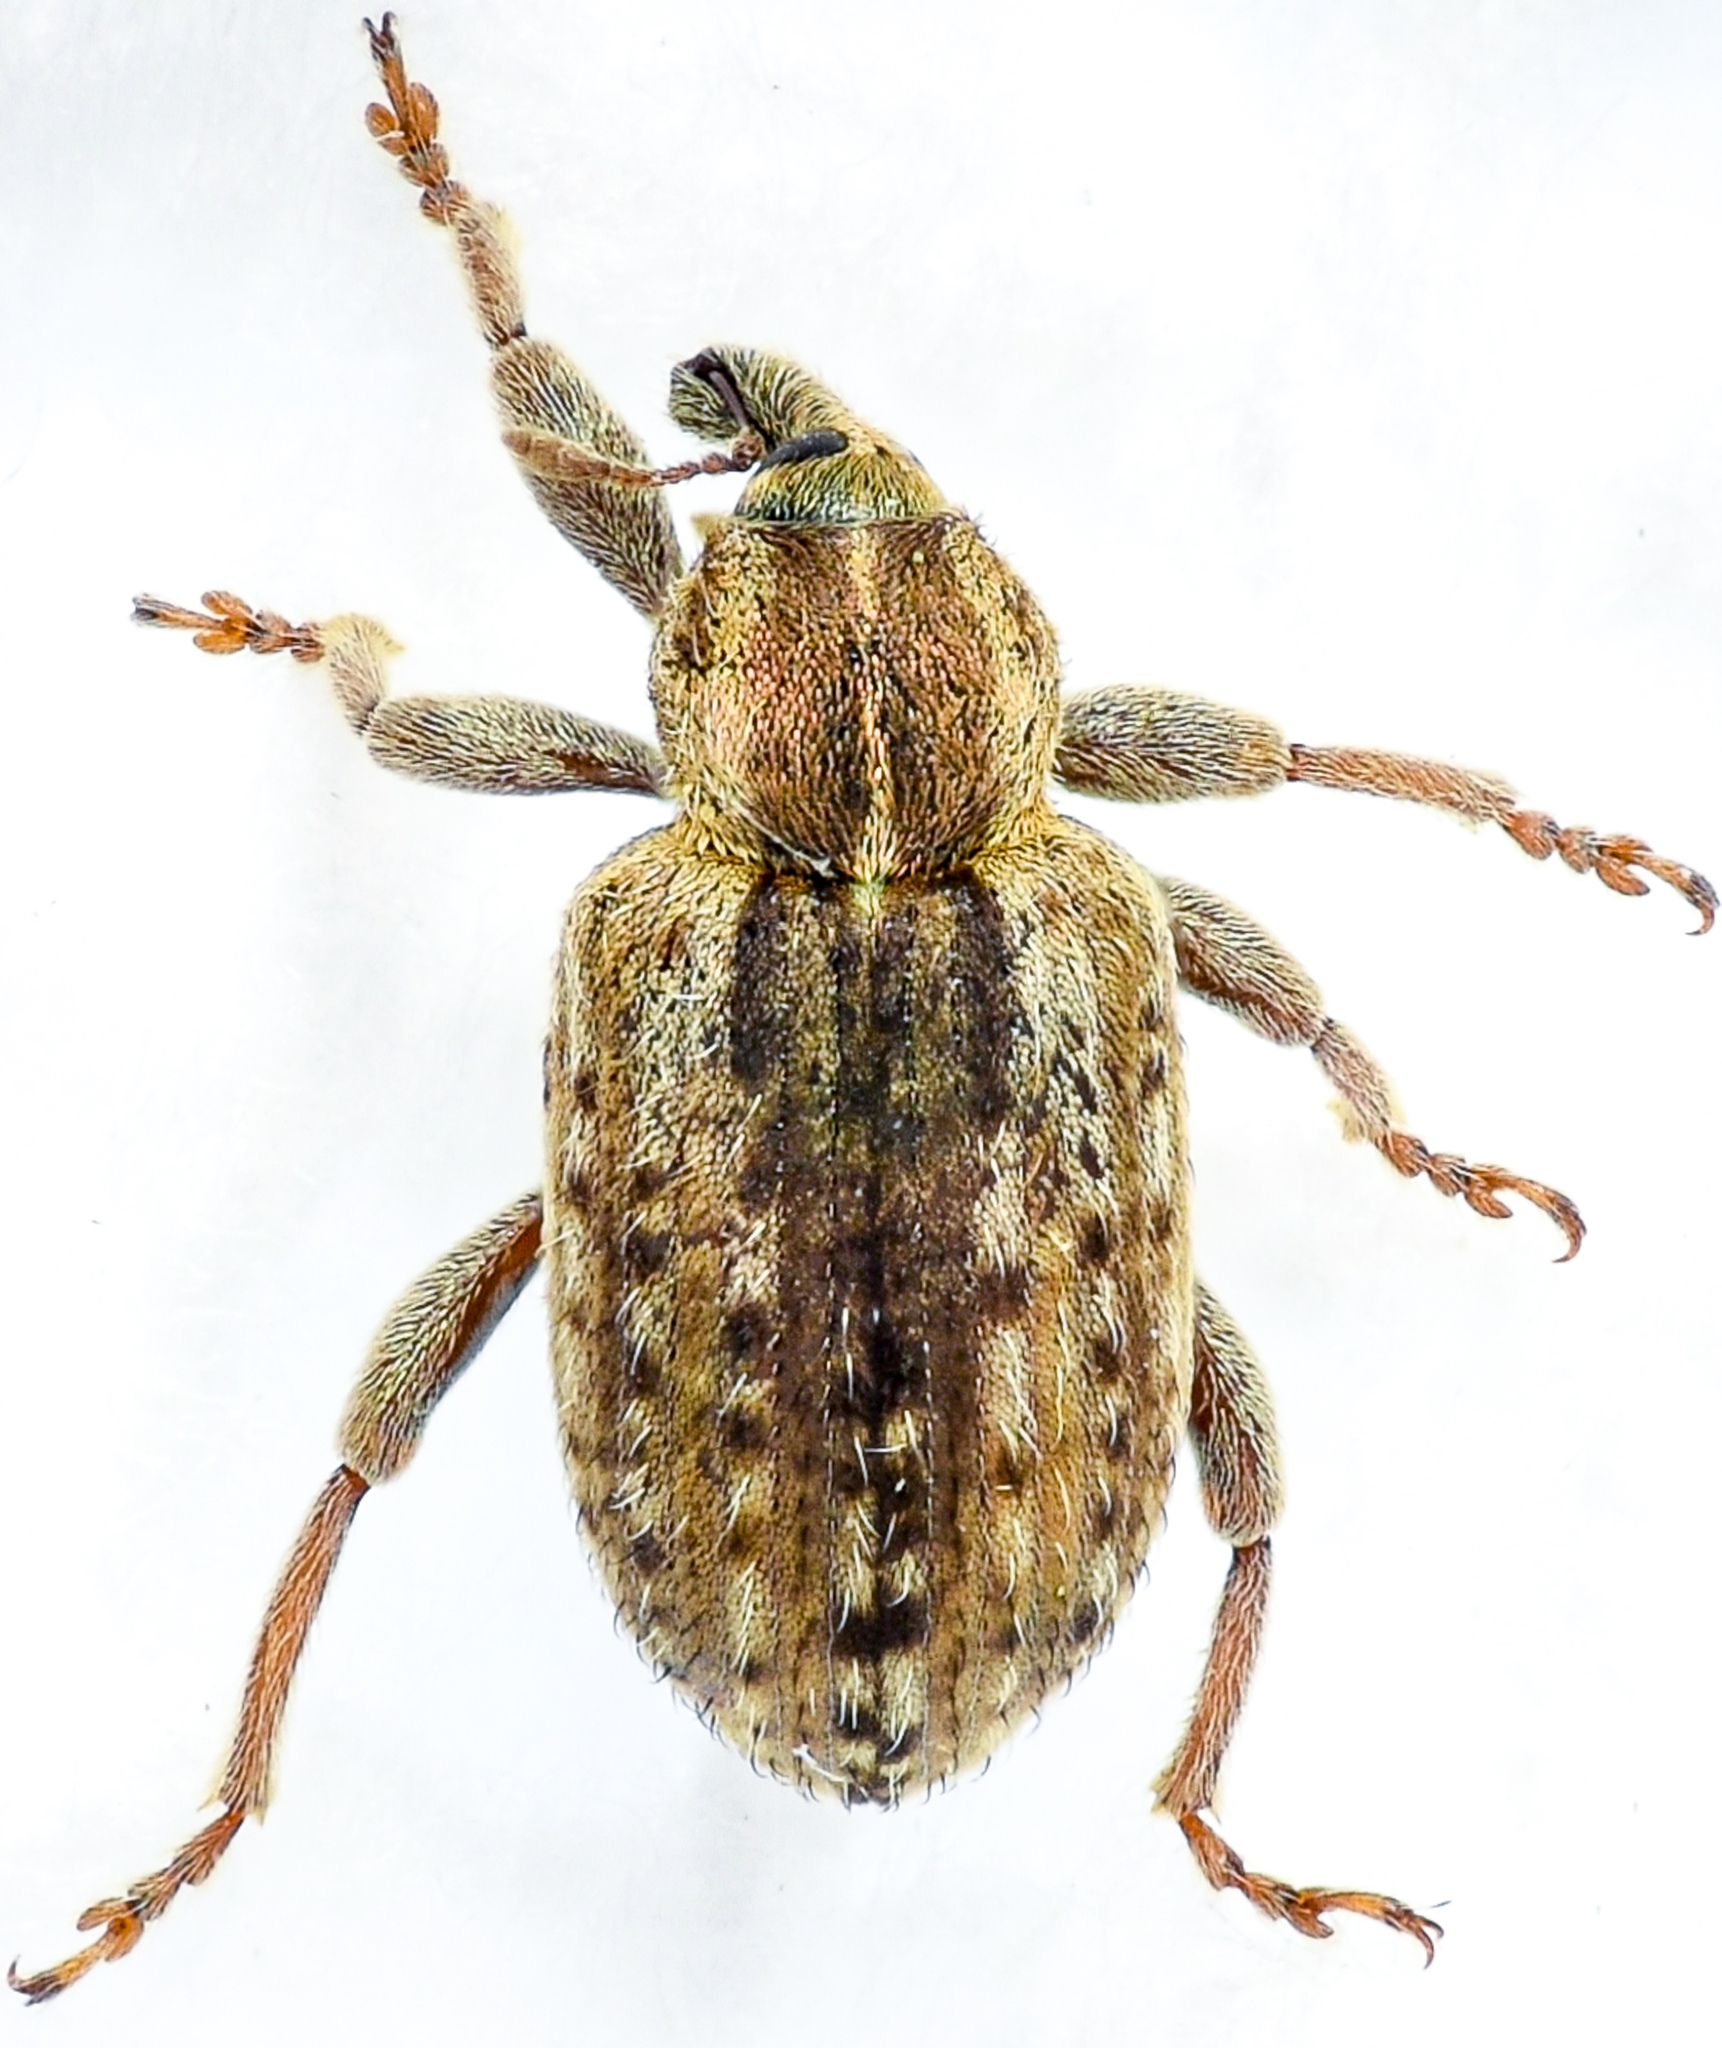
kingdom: Animalia
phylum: Arthropoda
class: Insecta
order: Coleoptera
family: Curculionidae
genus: Hypera
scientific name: Hypera postica
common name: Weevil
